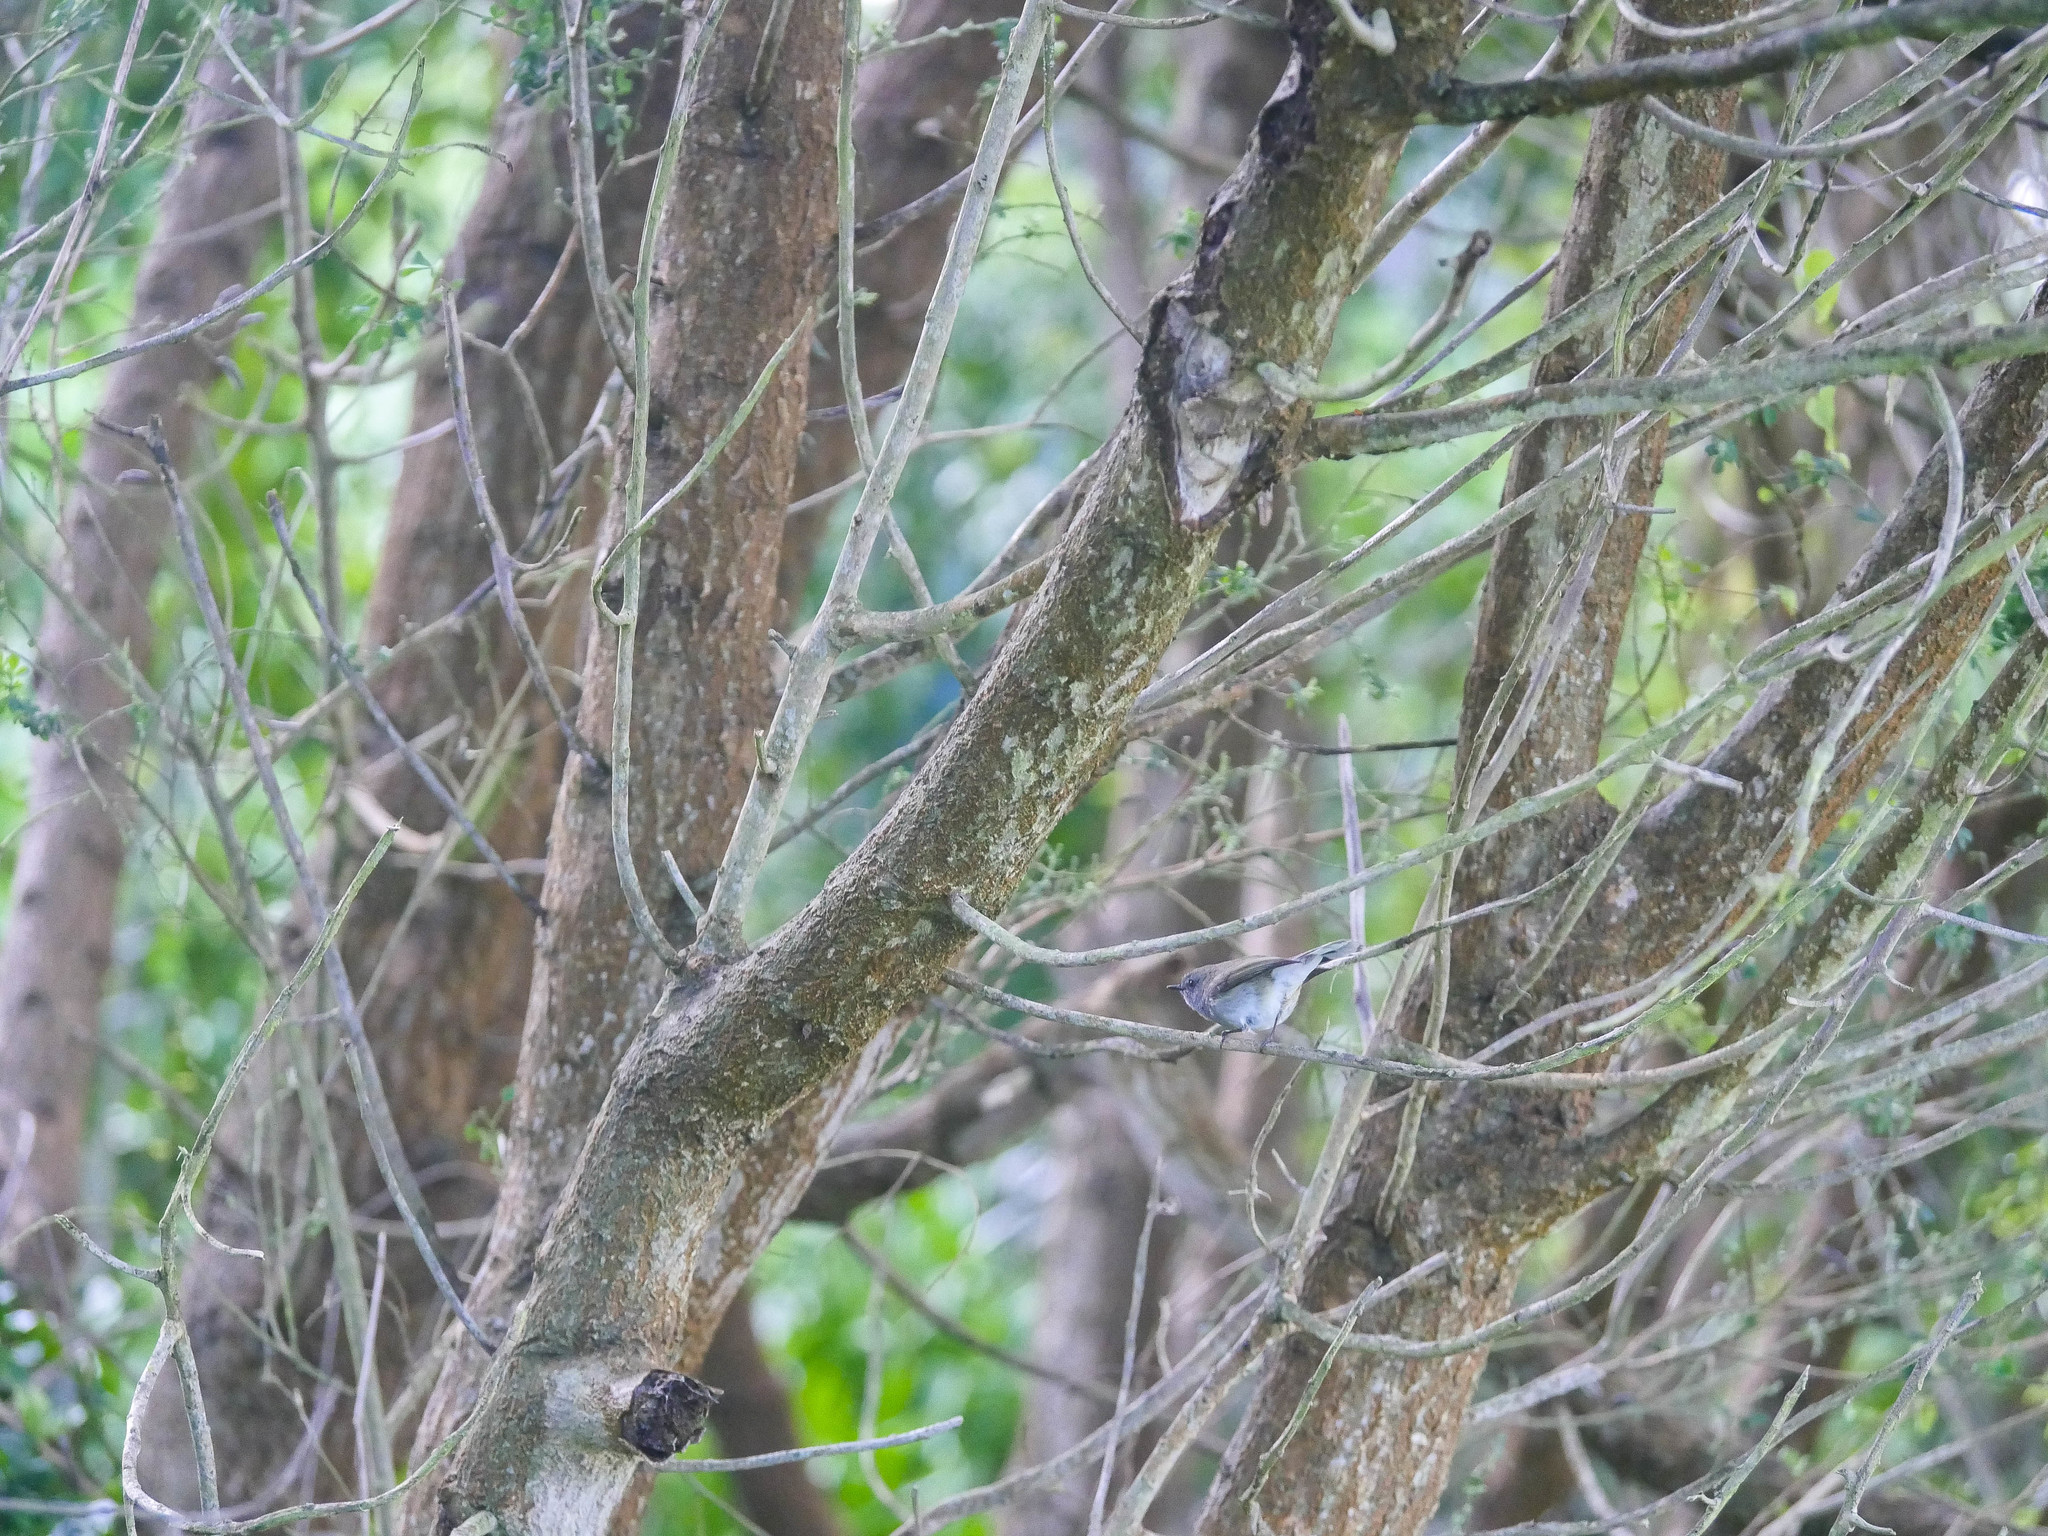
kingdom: Animalia
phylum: Chordata
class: Aves
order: Passeriformes
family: Acanthizidae
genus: Gerygone
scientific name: Gerygone igata
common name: Grey gerygone
